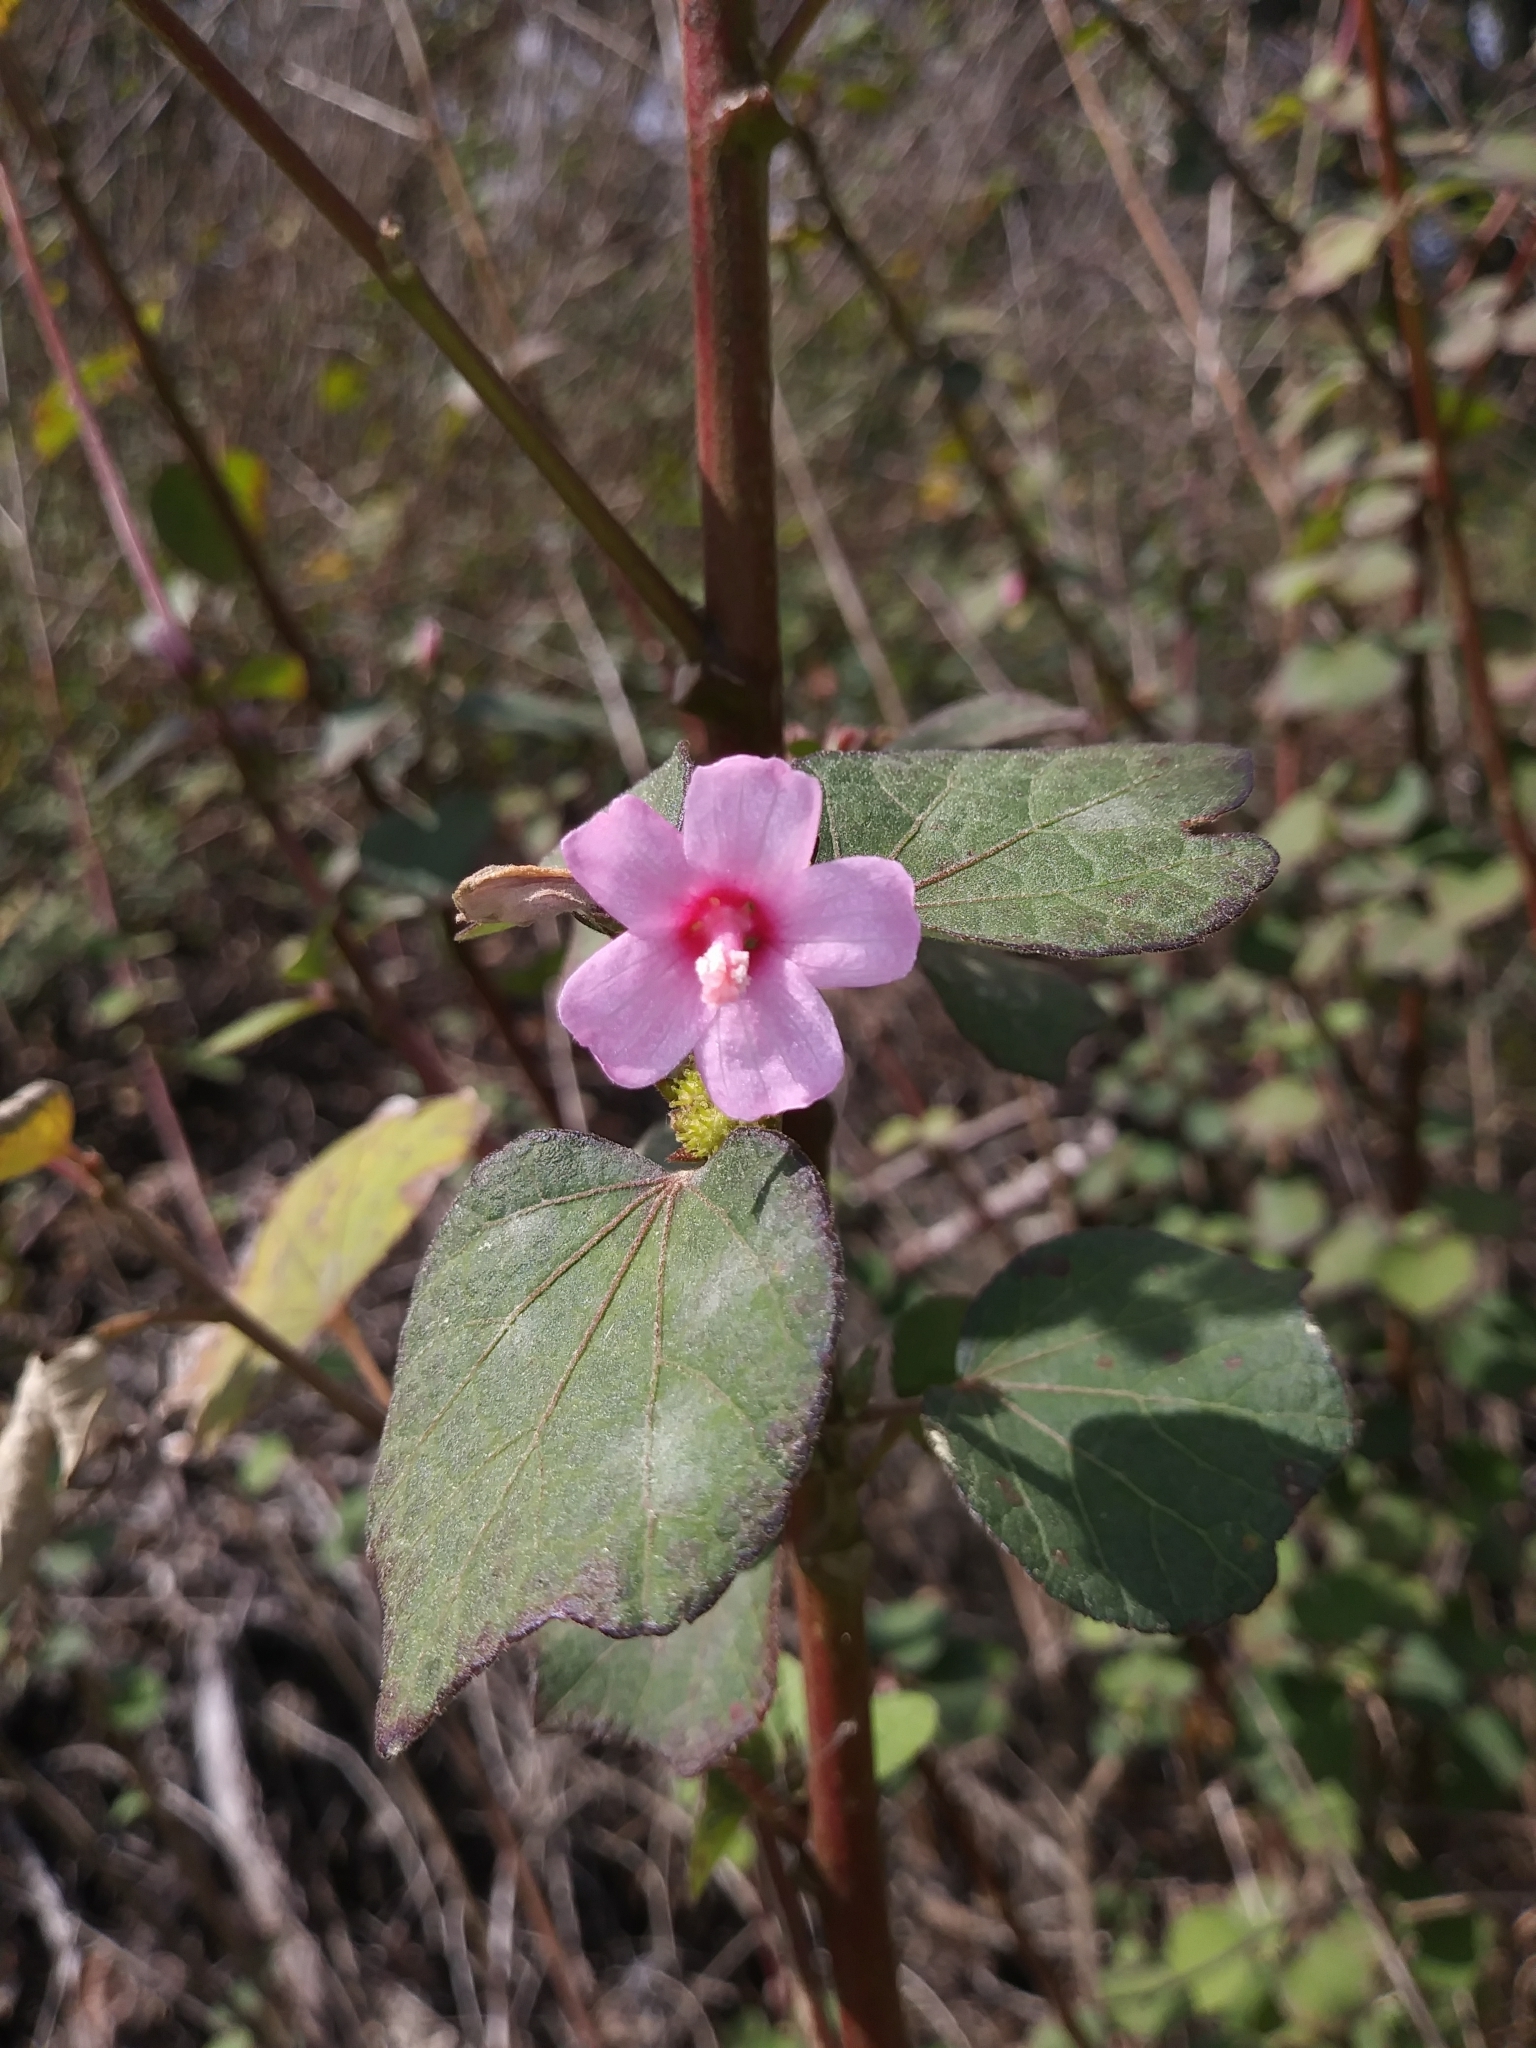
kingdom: Plantae
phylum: Tracheophyta
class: Magnoliopsida
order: Malvales
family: Malvaceae
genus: Urena
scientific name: Urena lobata
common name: Caesarweed
